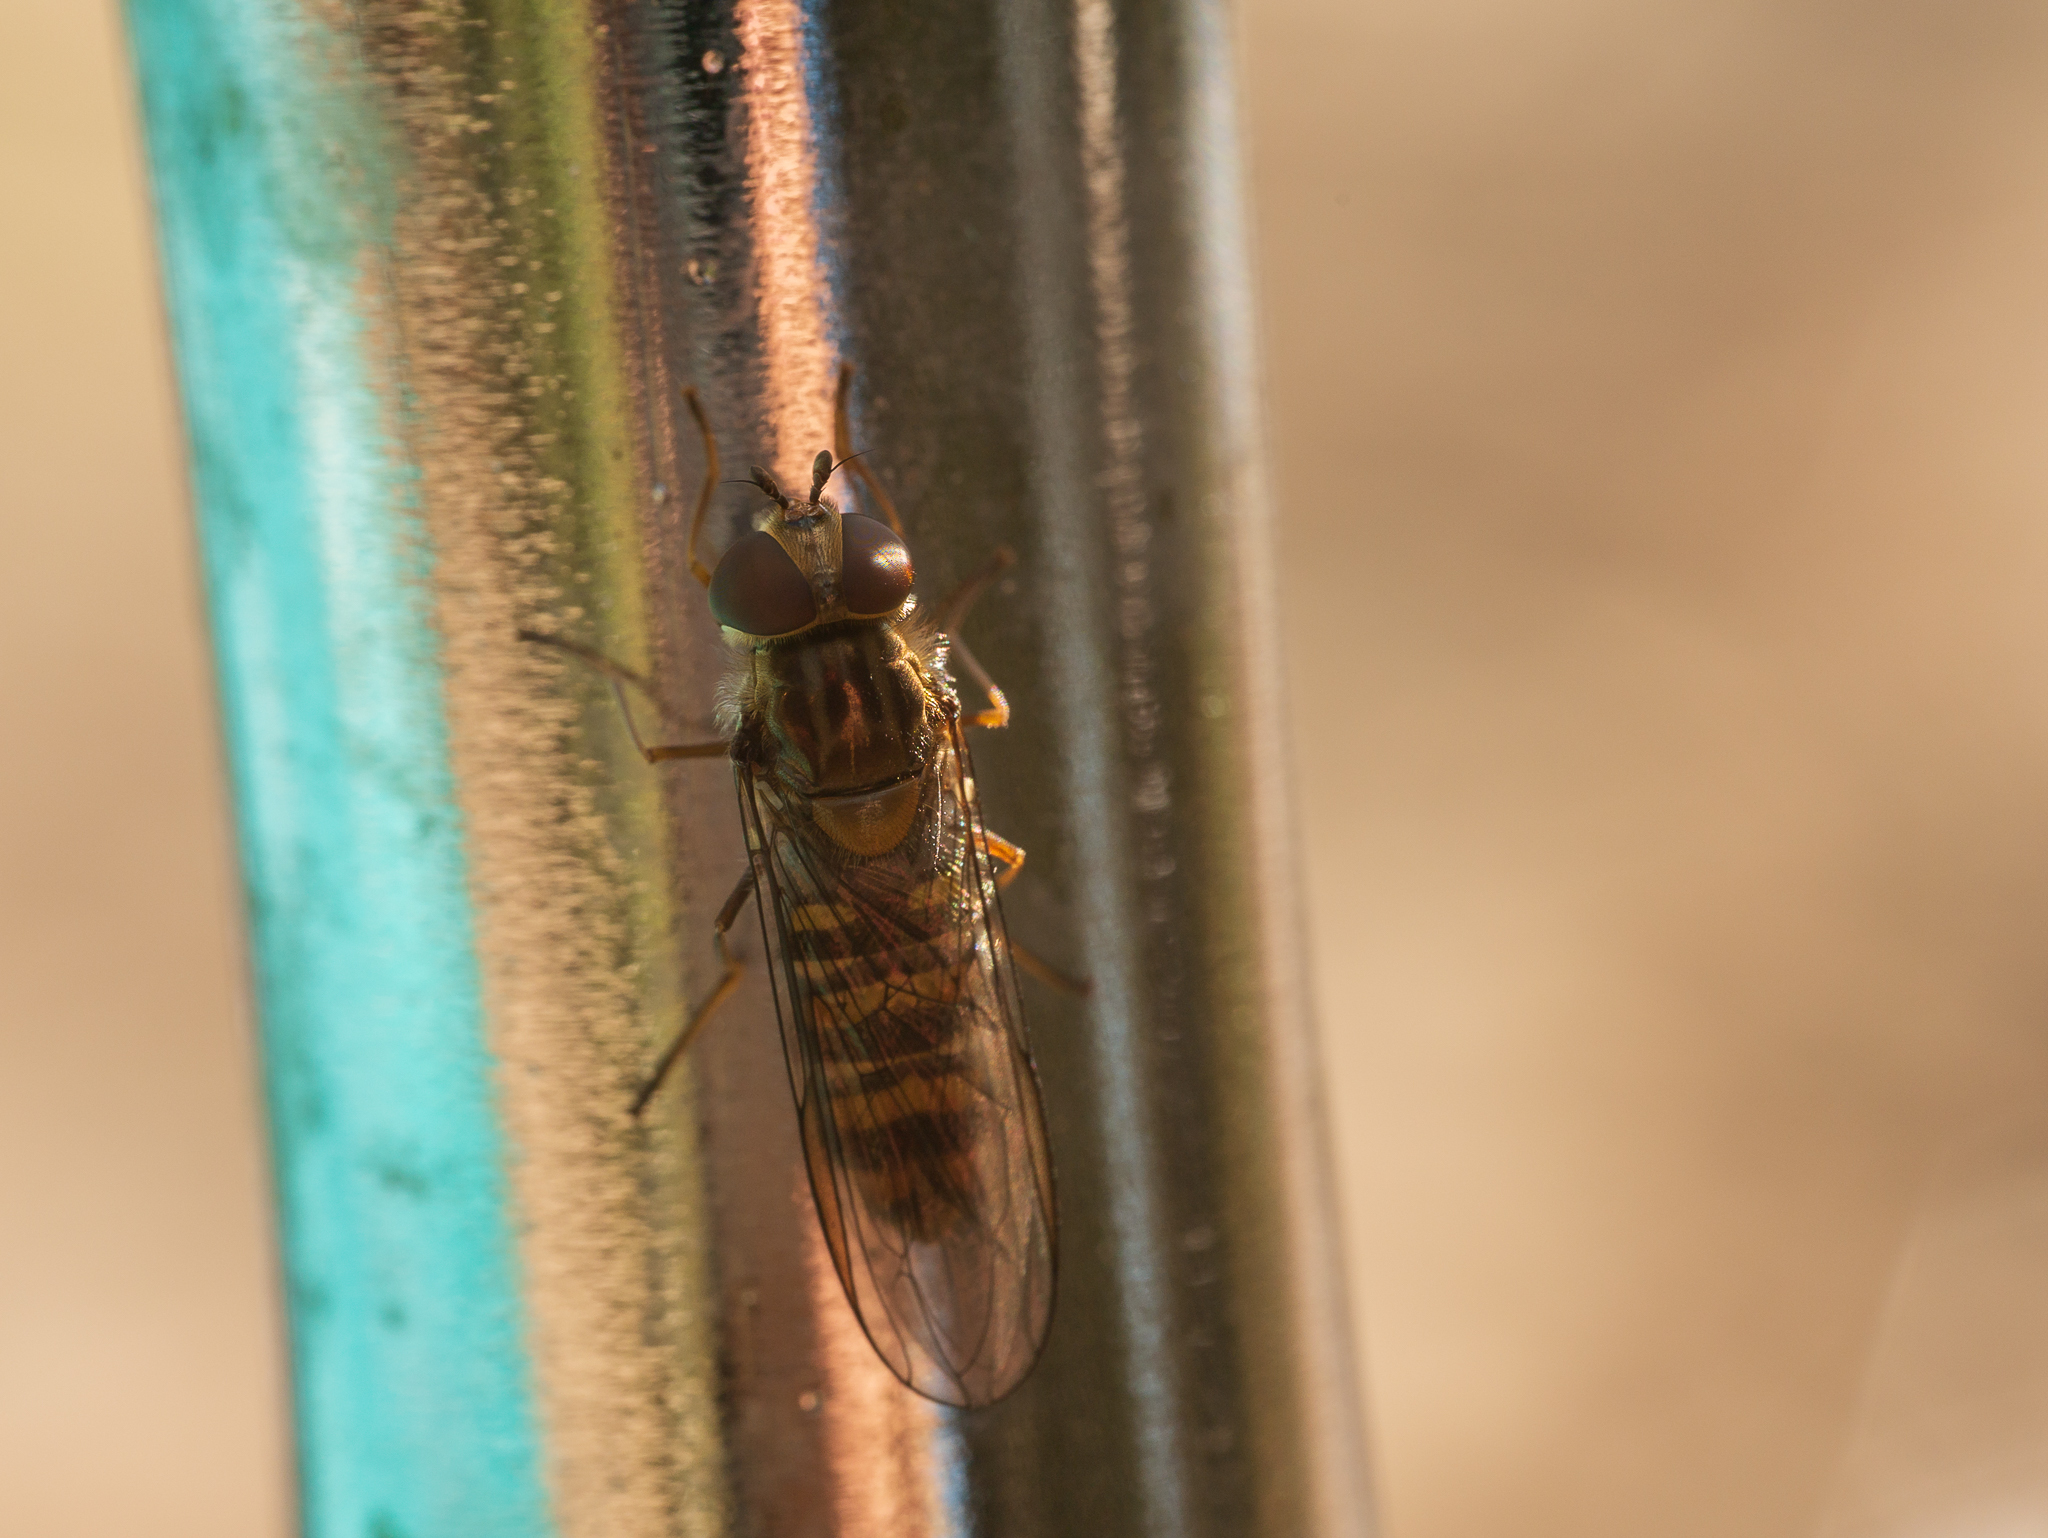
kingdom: Animalia
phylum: Arthropoda
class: Insecta
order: Diptera
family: Syrphidae
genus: Episyrphus
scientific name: Episyrphus balteatus
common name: Marmalade hoverfly
